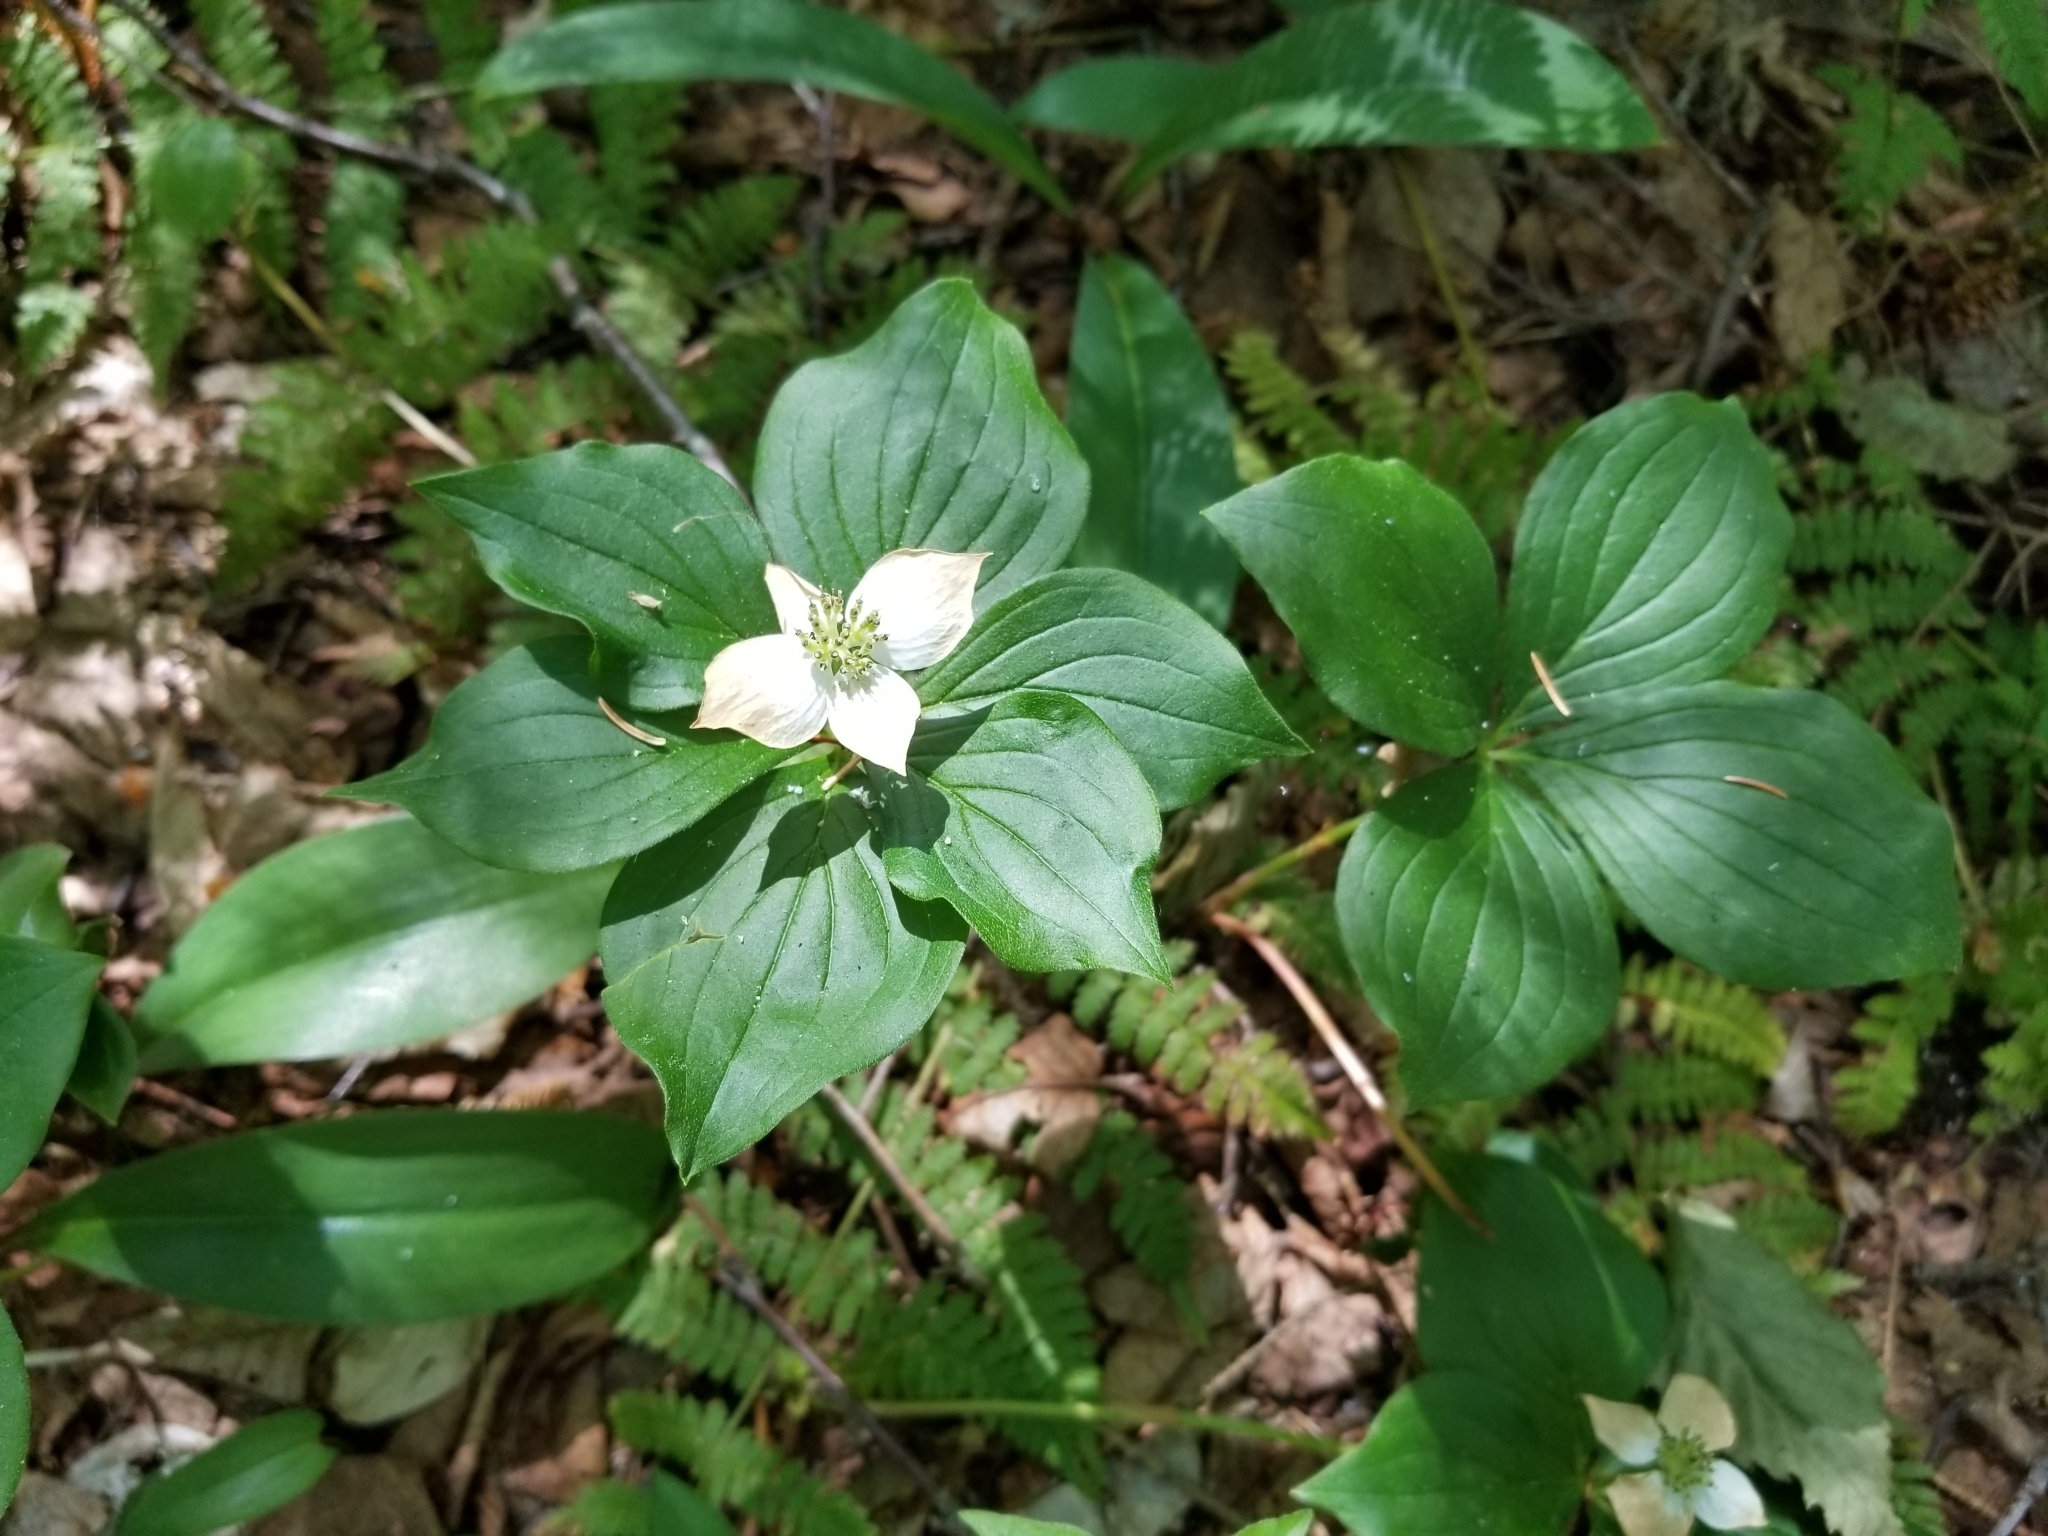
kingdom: Plantae
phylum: Tracheophyta
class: Magnoliopsida
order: Cornales
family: Cornaceae
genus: Cornus
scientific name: Cornus canadensis
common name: Creeping dogwood
